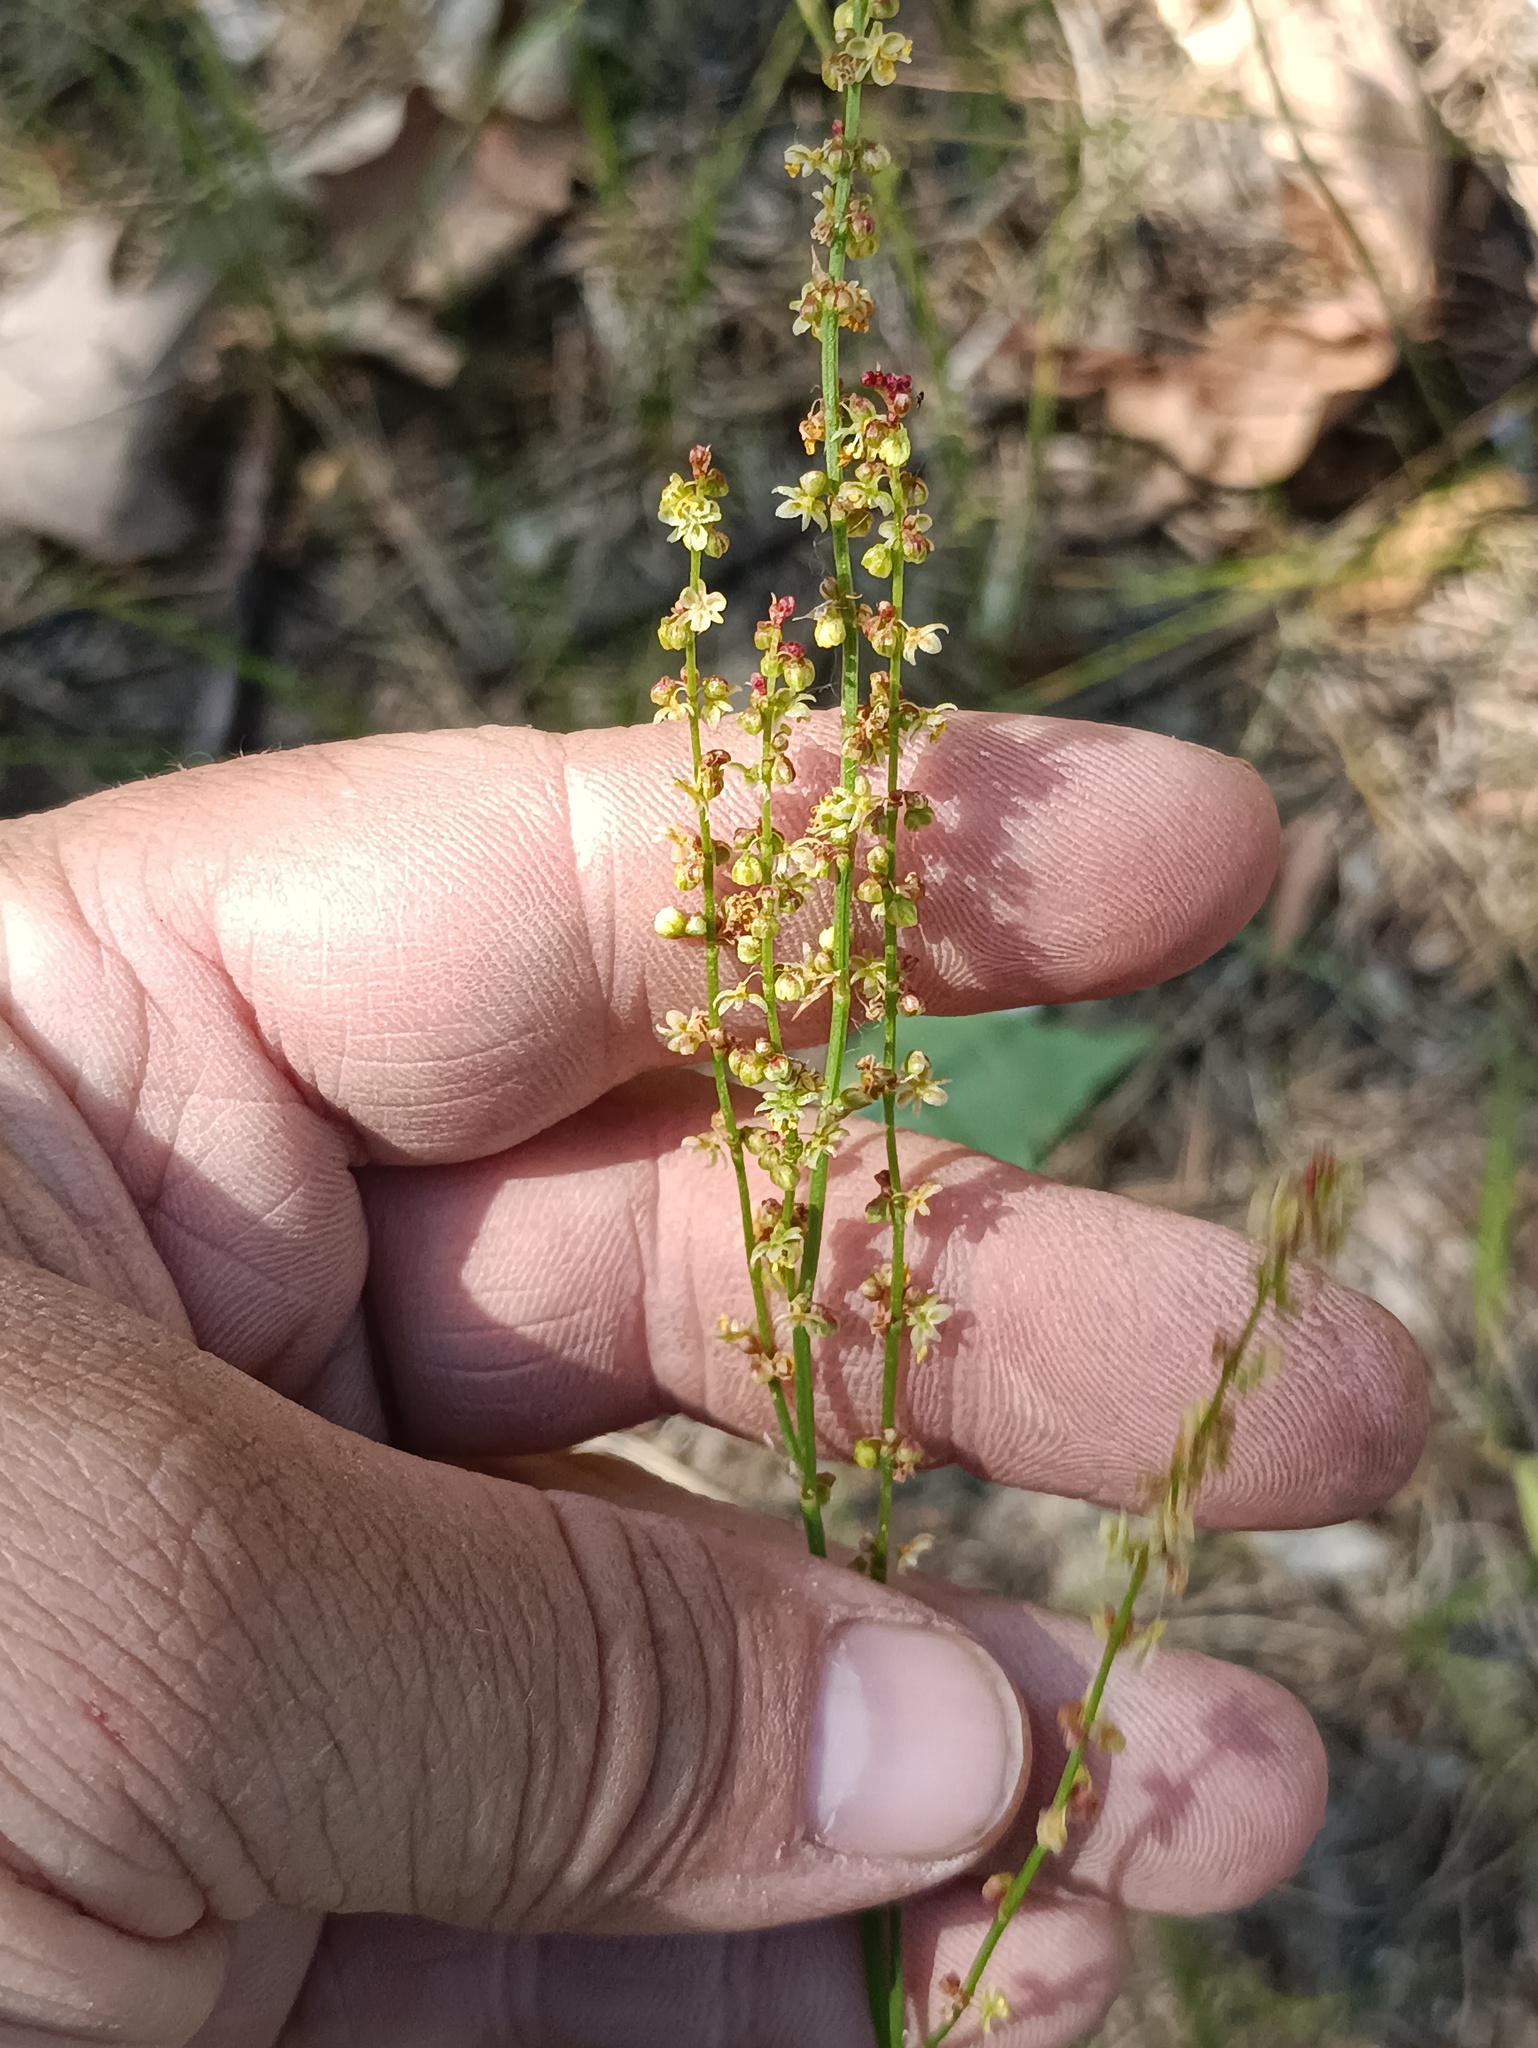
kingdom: Plantae
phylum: Tracheophyta
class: Magnoliopsida
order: Caryophyllales
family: Polygonaceae
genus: Rumex
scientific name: Rumex acetosella
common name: Common sheep sorrel
